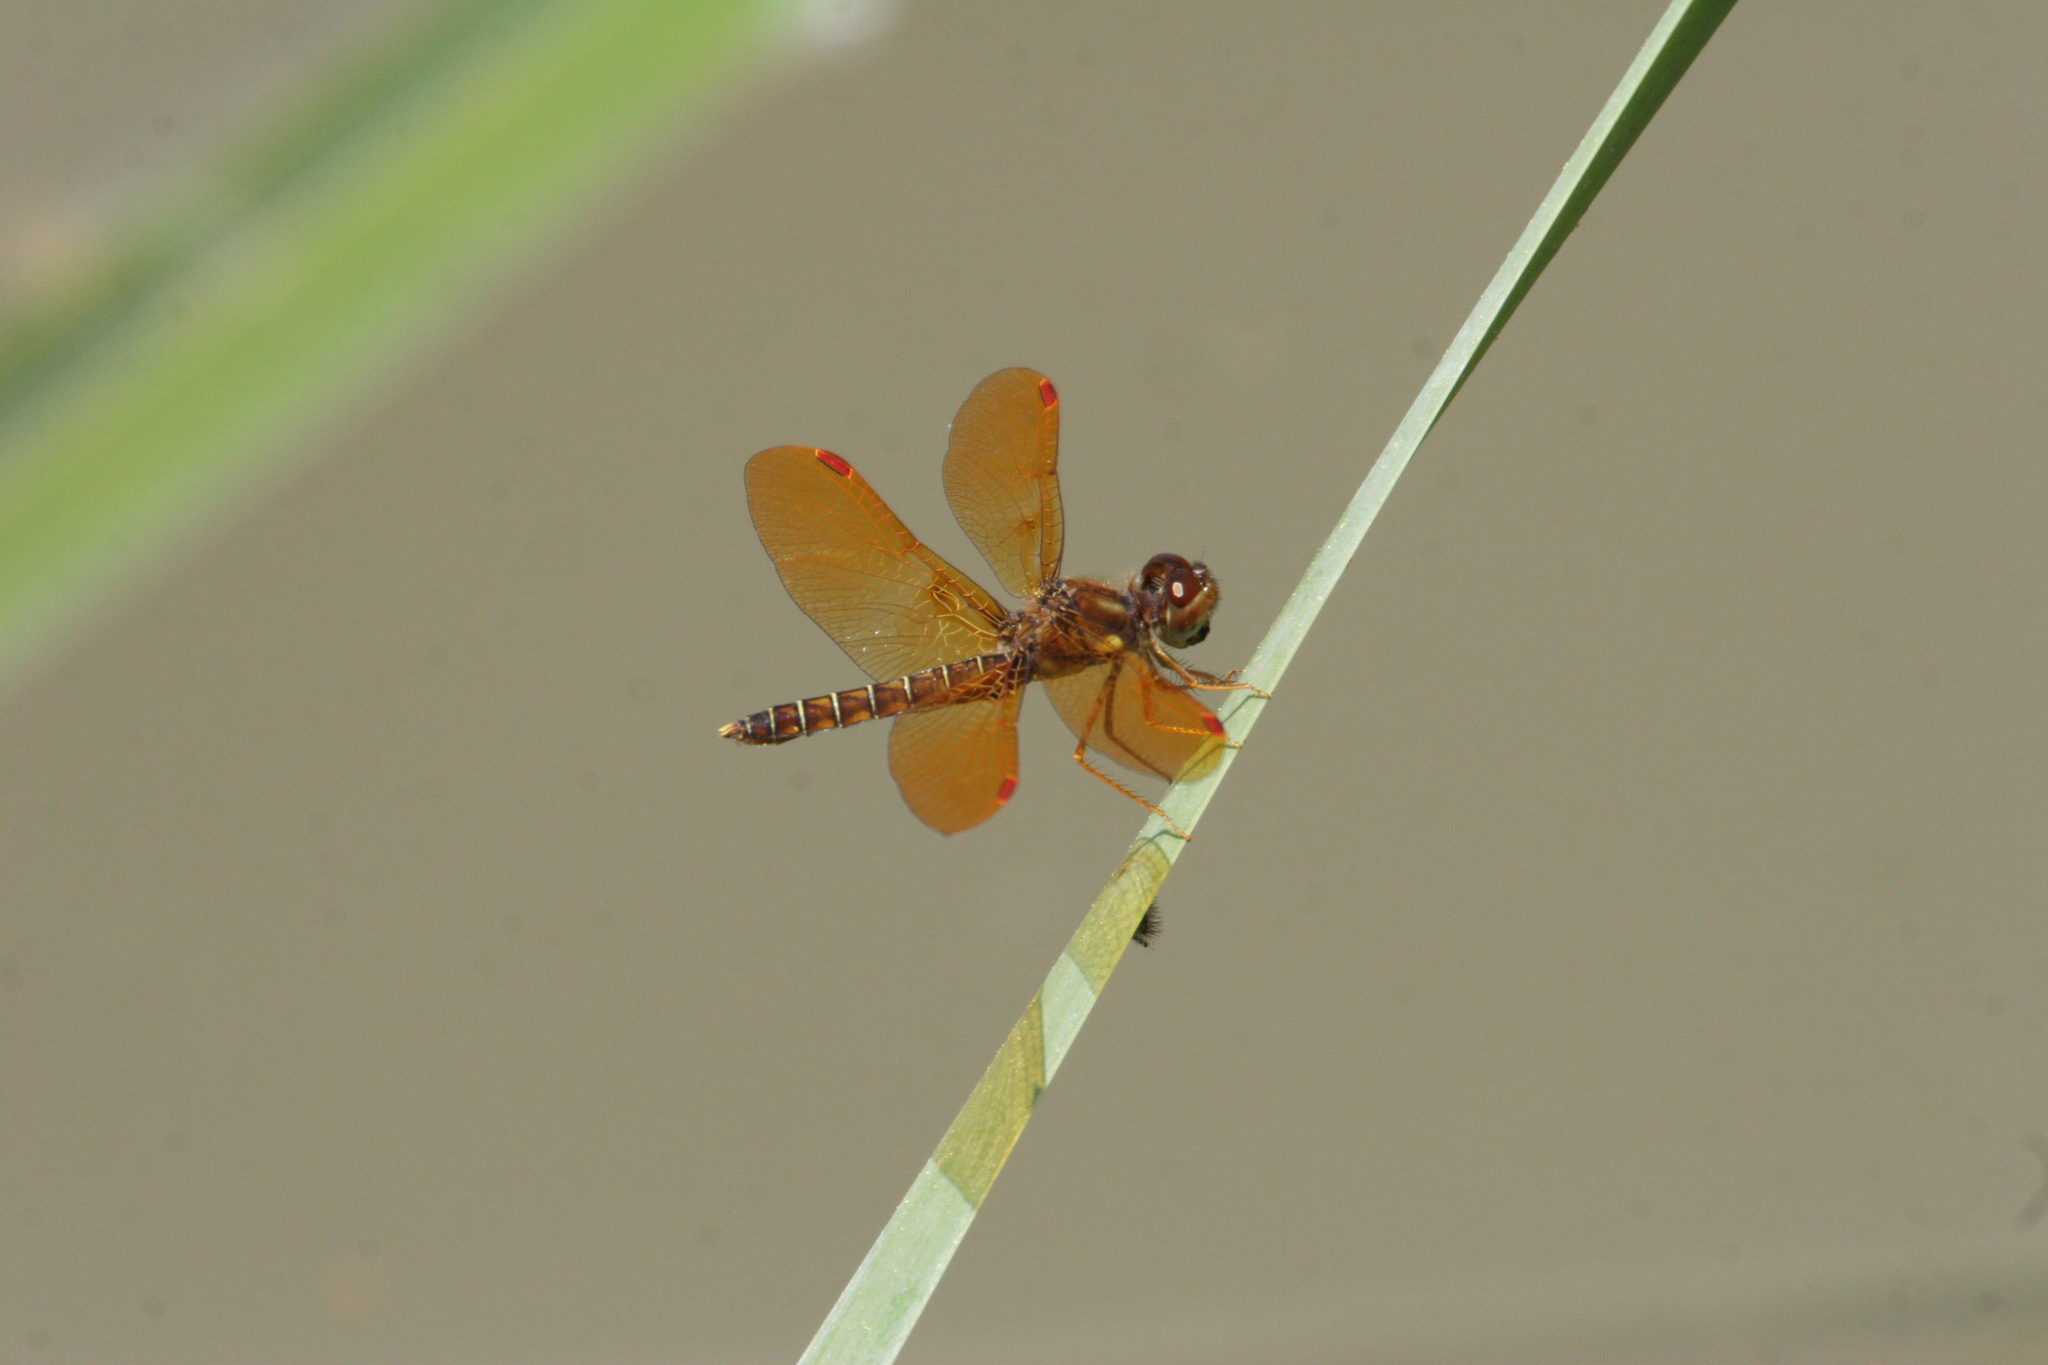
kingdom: Animalia
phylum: Arthropoda
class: Insecta
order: Odonata
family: Libellulidae
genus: Perithemis
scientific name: Perithemis tenera
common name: Eastern amberwing
